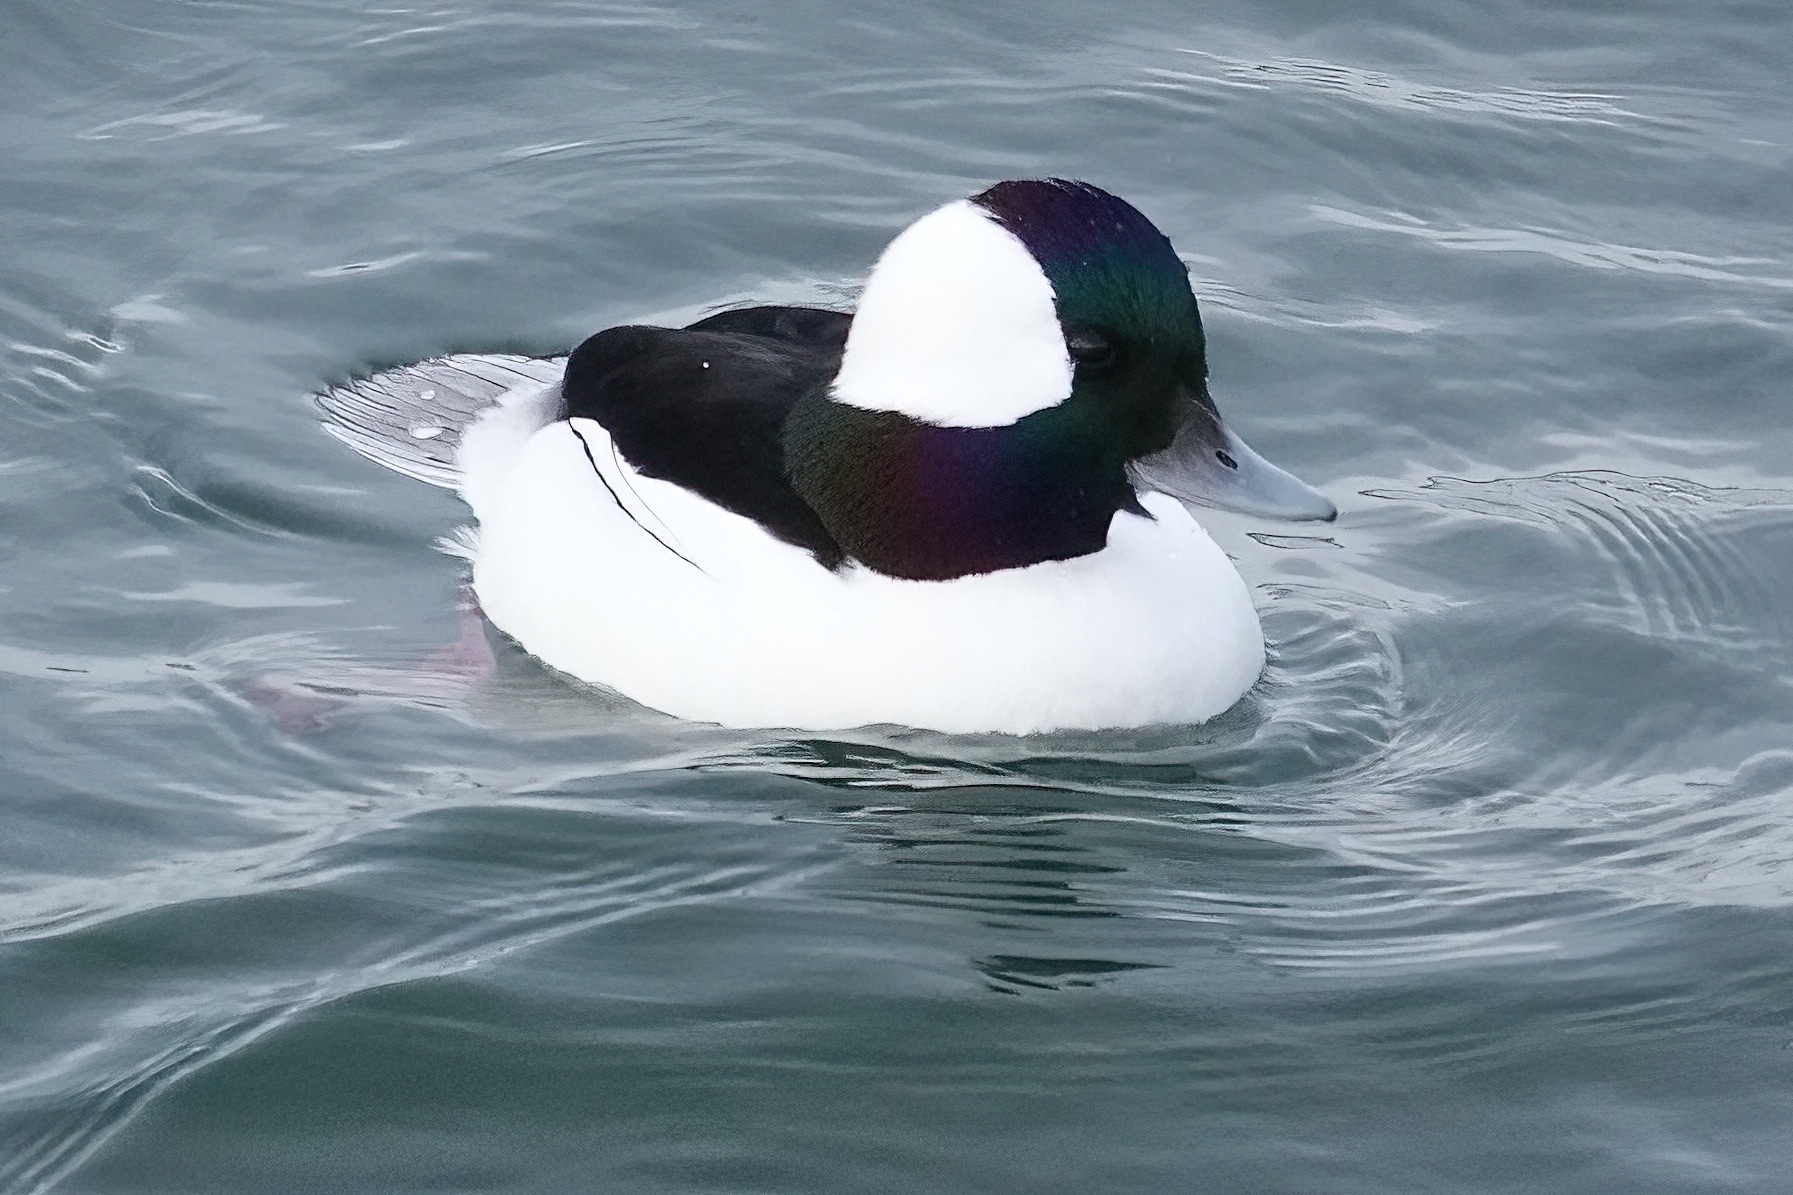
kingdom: Animalia
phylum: Chordata
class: Aves
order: Anseriformes
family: Anatidae
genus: Bucephala
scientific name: Bucephala albeola
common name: Bufflehead
